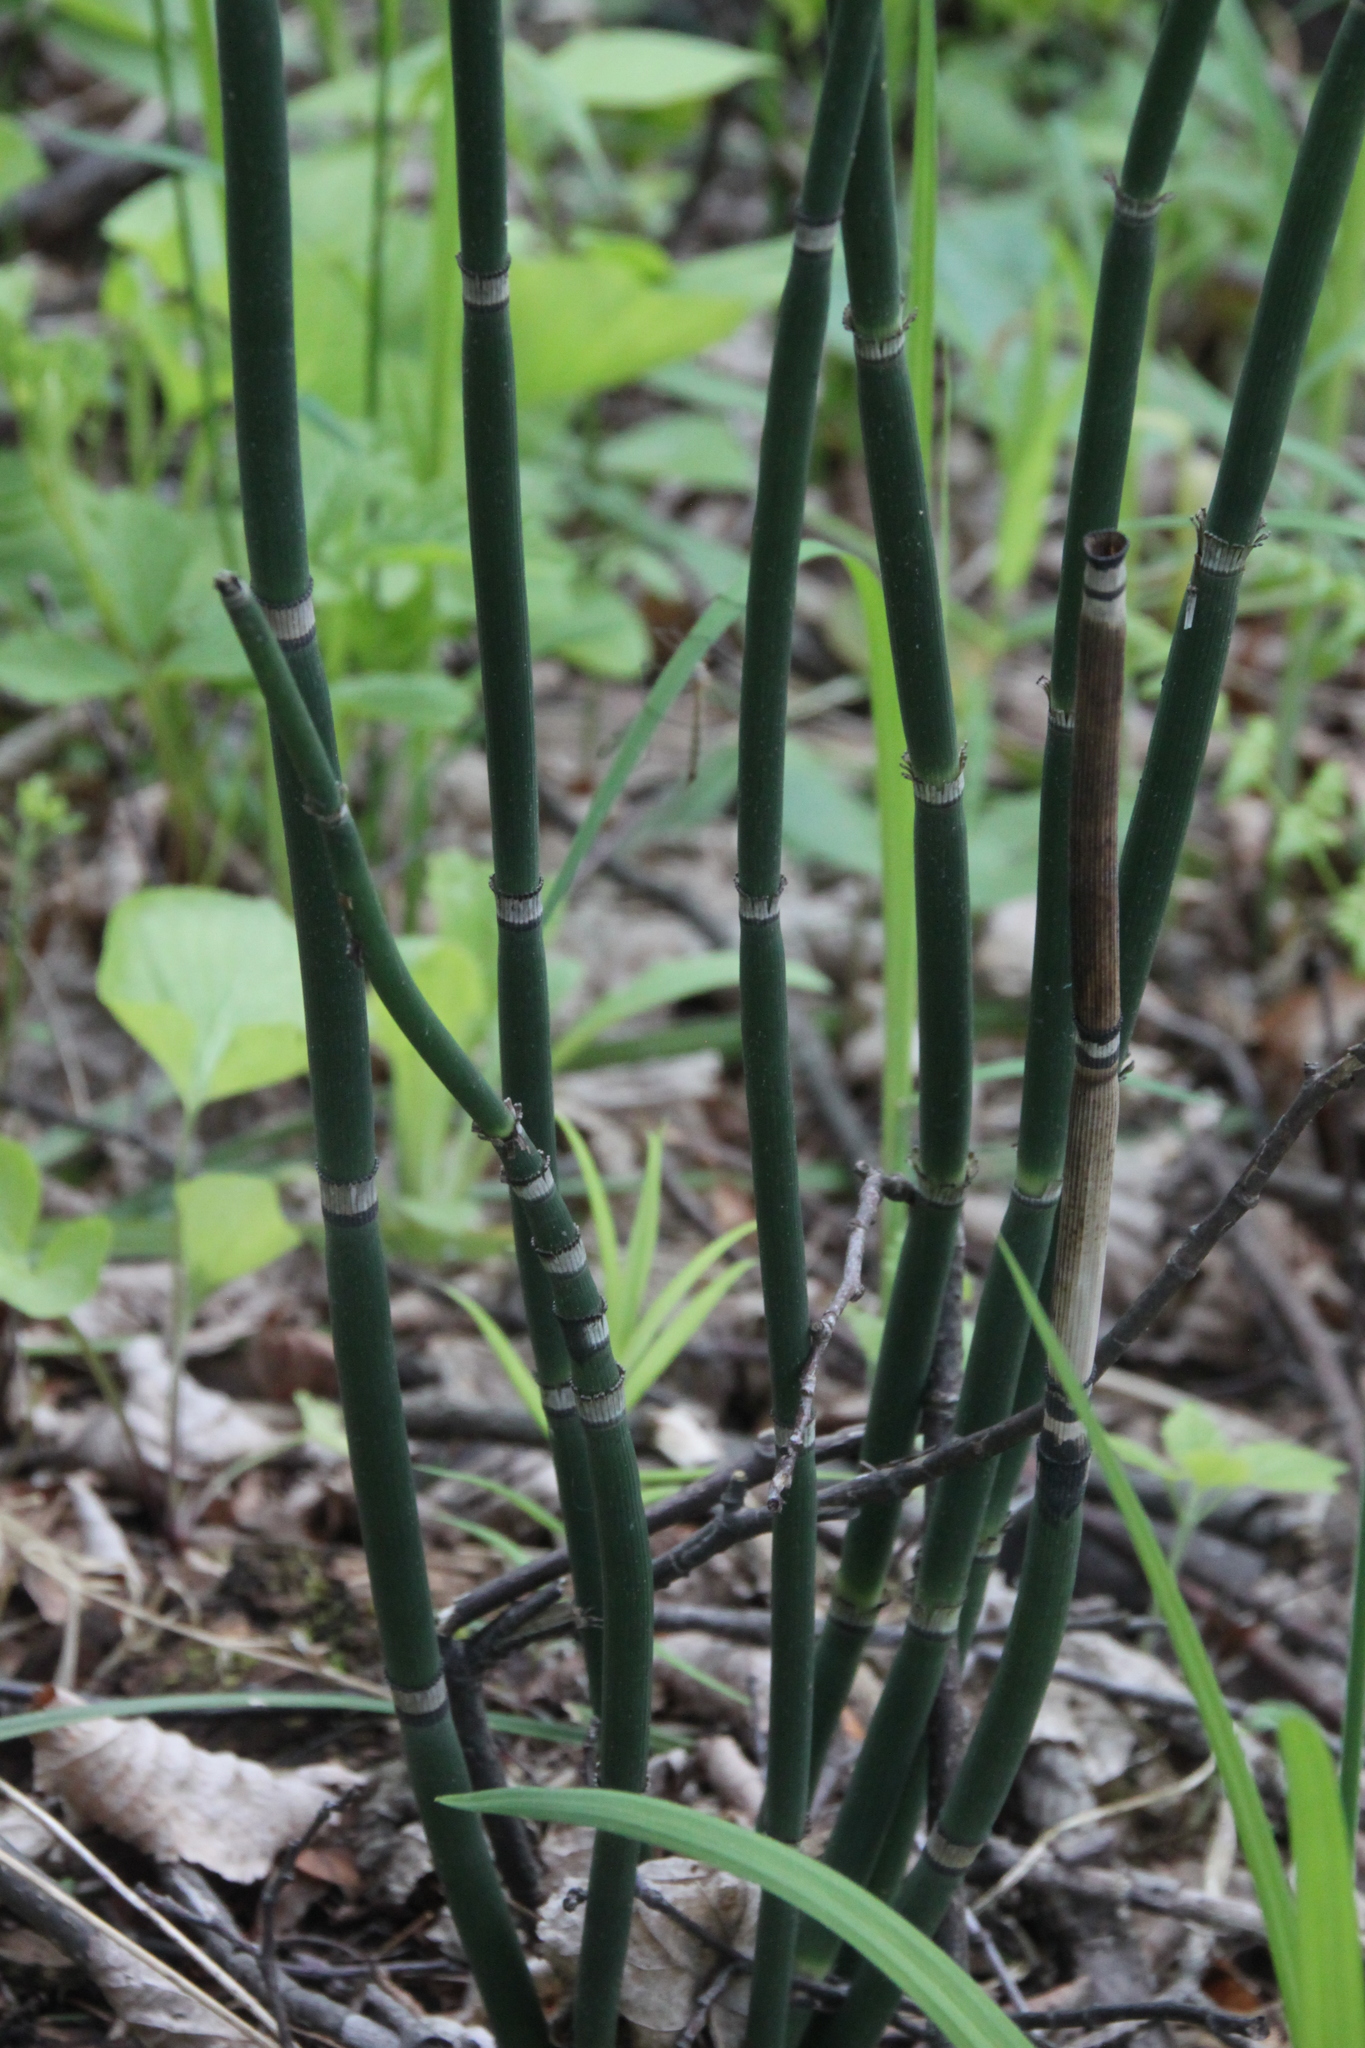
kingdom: Plantae
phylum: Tracheophyta
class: Polypodiopsida
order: Equisetales
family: Equisetaceae
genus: Equisetum
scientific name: Equisetum hyemale
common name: Rough horsetail
